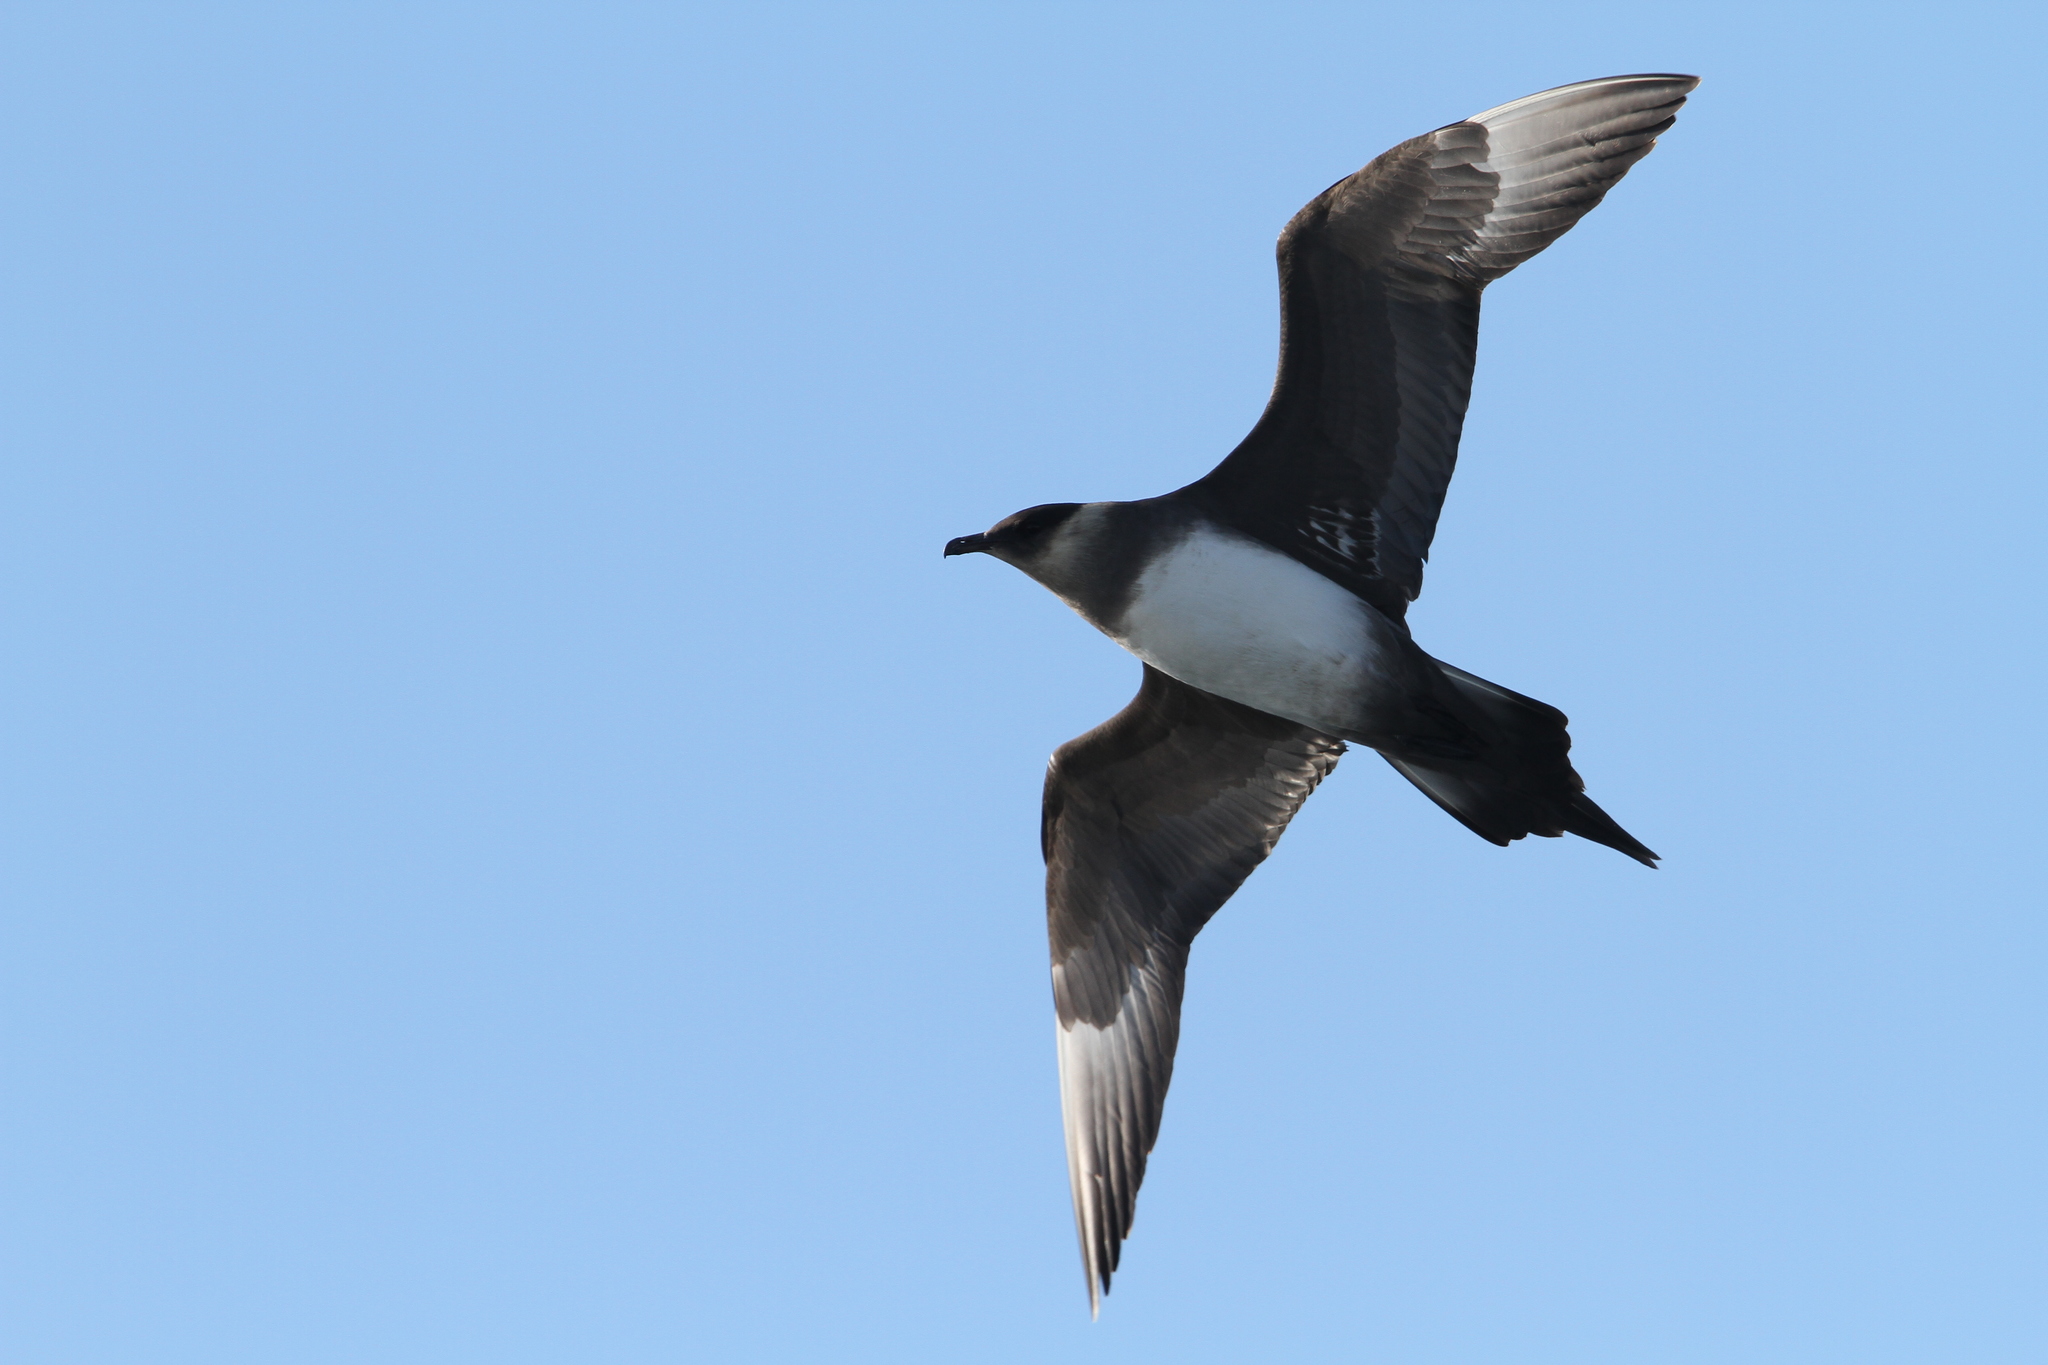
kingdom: Animalia
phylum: Chordata
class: Aves
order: Charadriiformes
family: Stercorariidae
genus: Stercorarius
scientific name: Stercorarius parasiticus
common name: Parasitic jaeger
